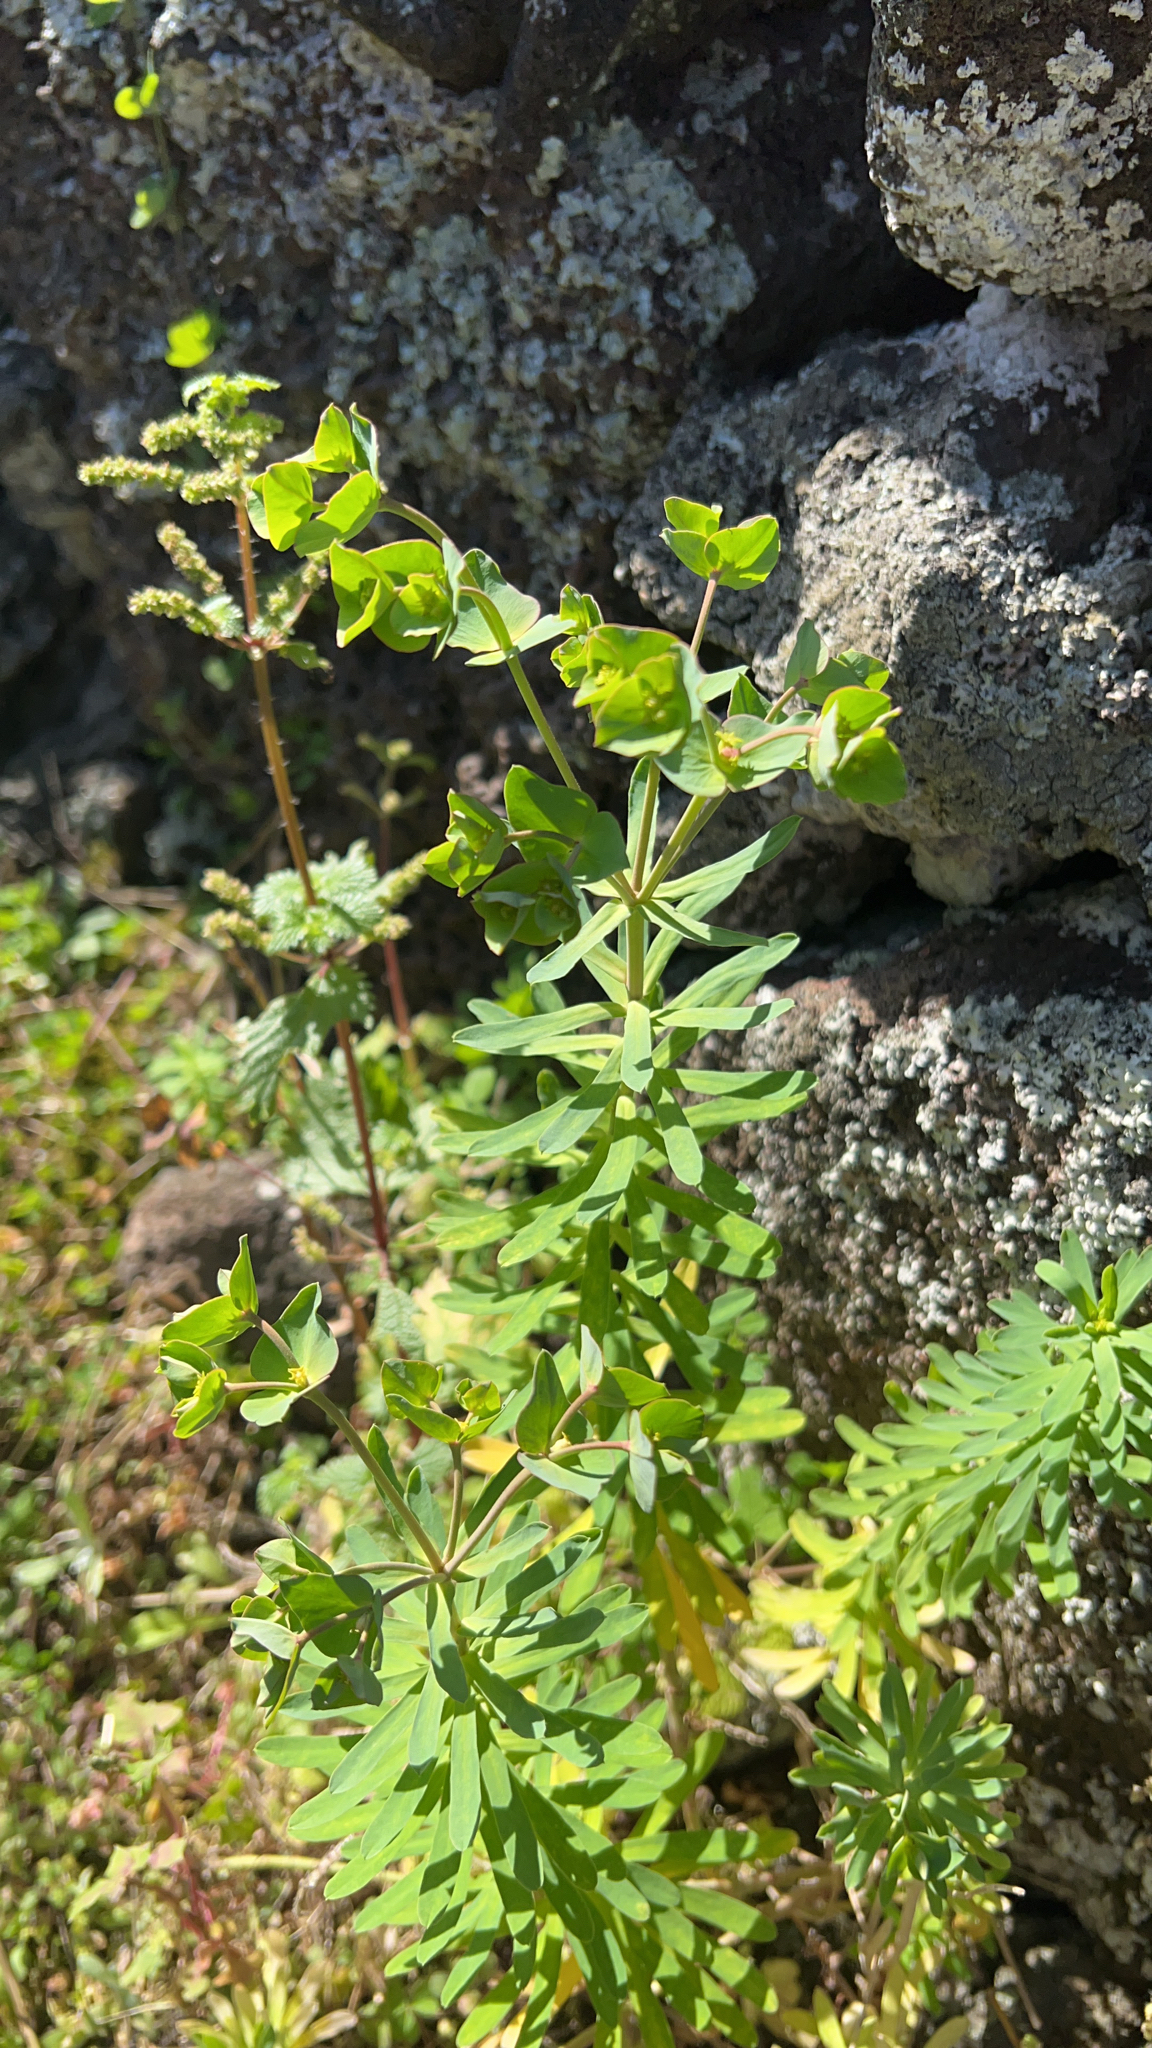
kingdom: Plantae
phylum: Tracheophyta
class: Magnoliopsida
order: Malpighiales
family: Euphorbiaceae
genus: Euphorbia
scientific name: Euphorbia azorica
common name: Erva-leitera
